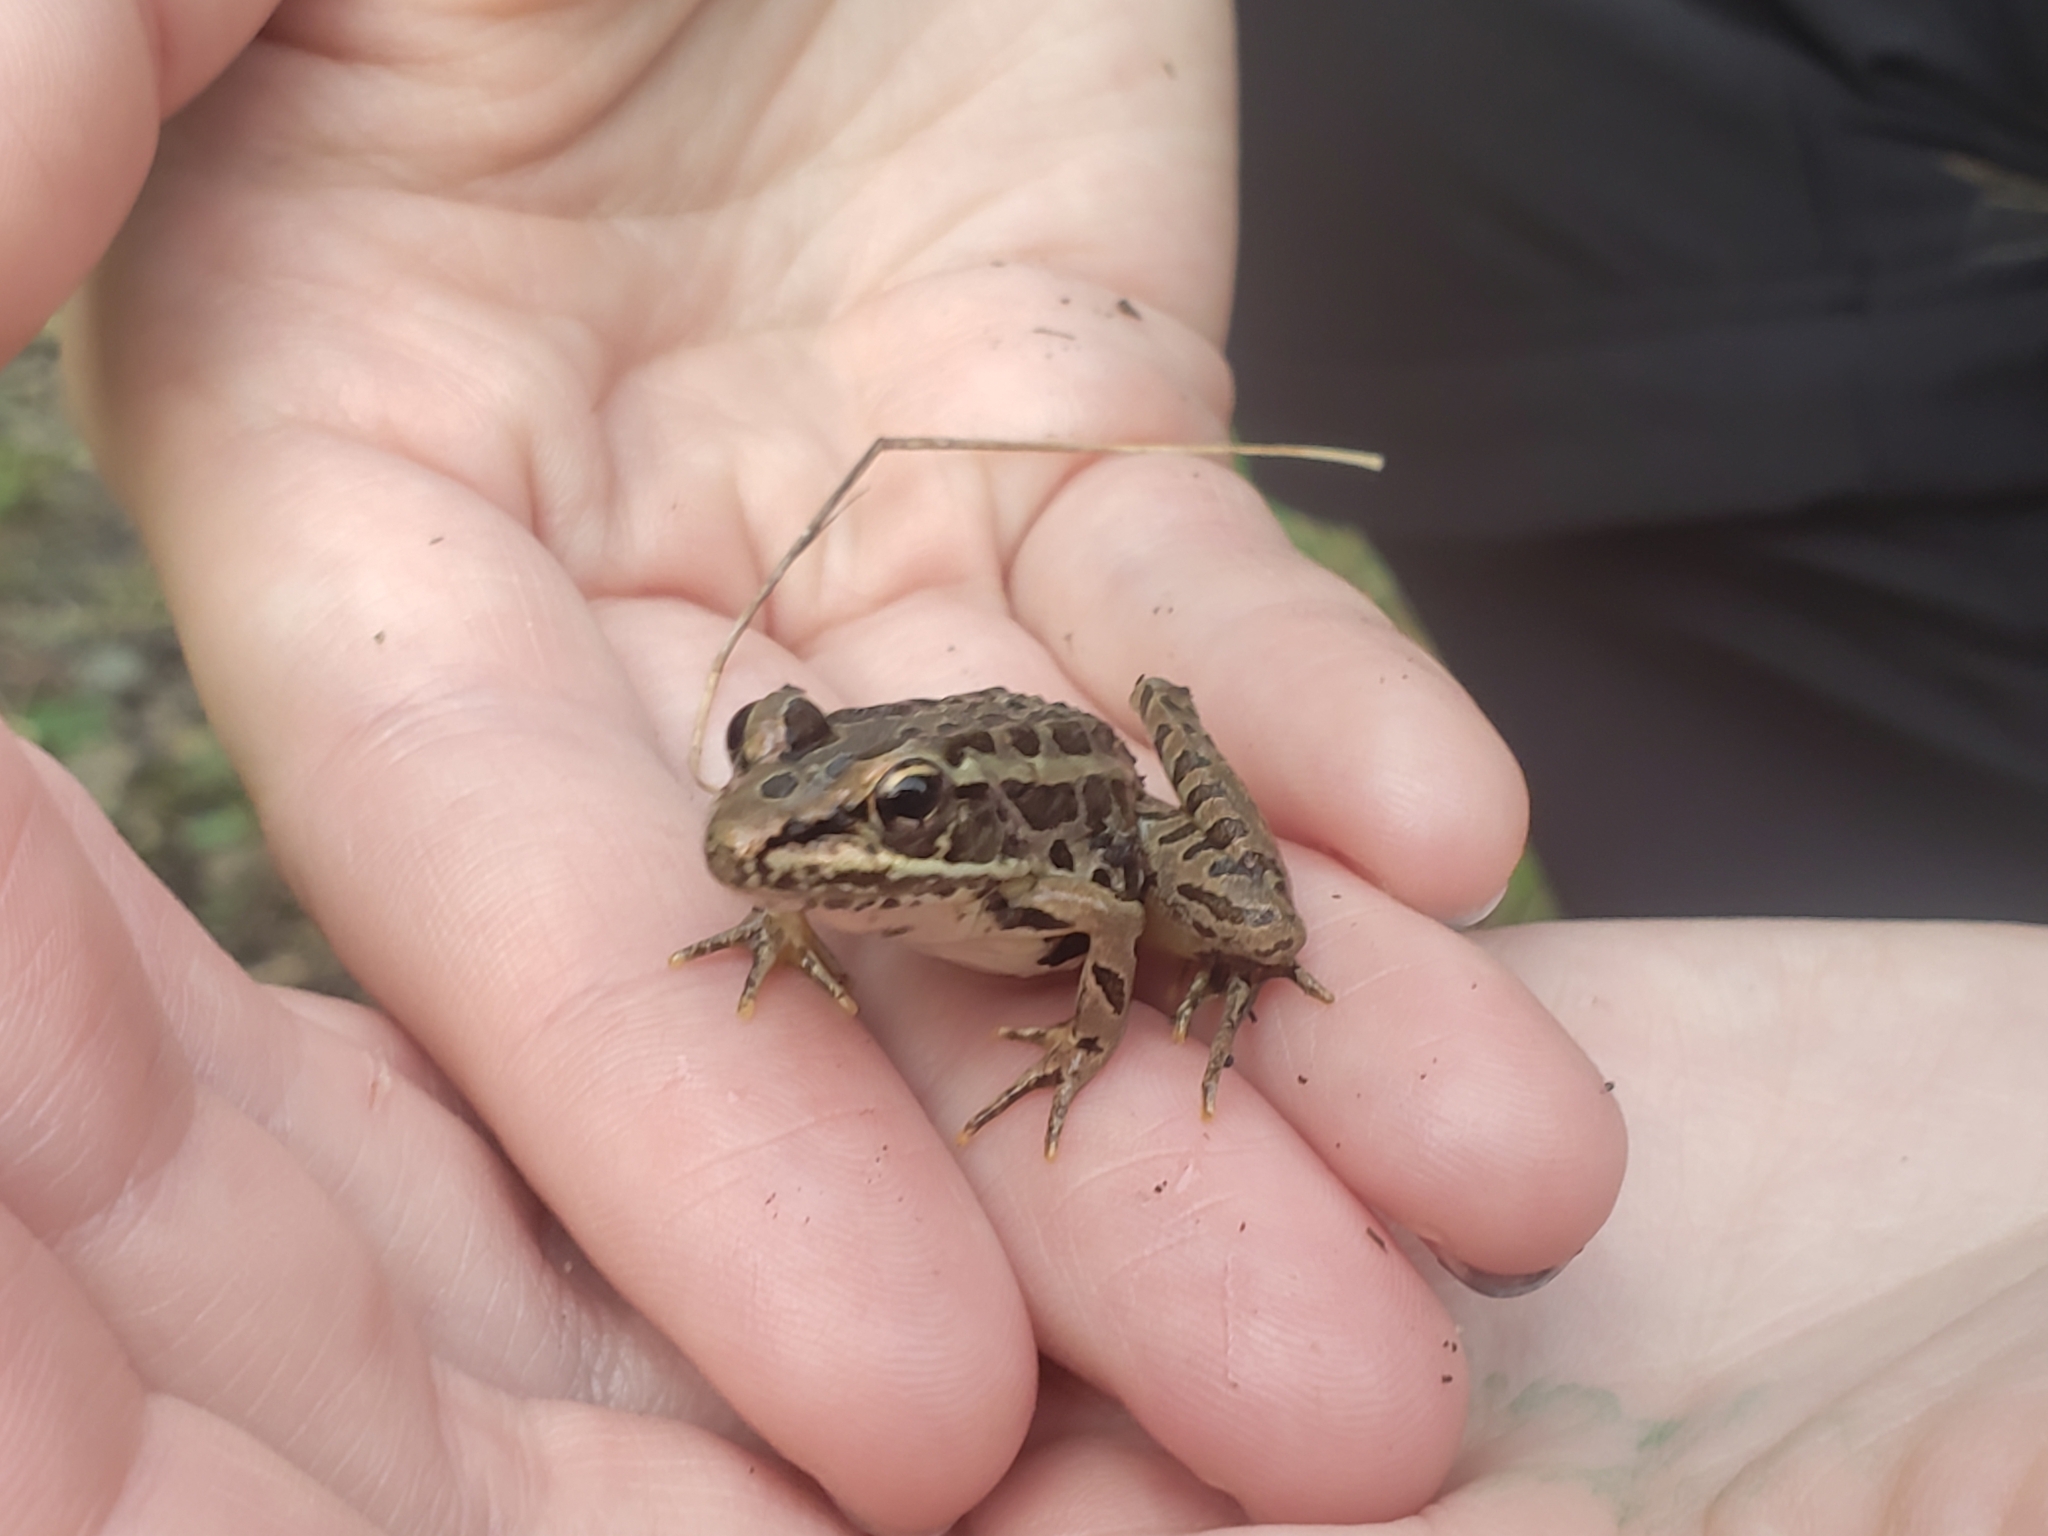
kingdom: Animalia
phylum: Chordata
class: Amphibia
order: Anura
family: Ranidae
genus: Lithobates
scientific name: Lithobates palustris
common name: Pickerel frog
